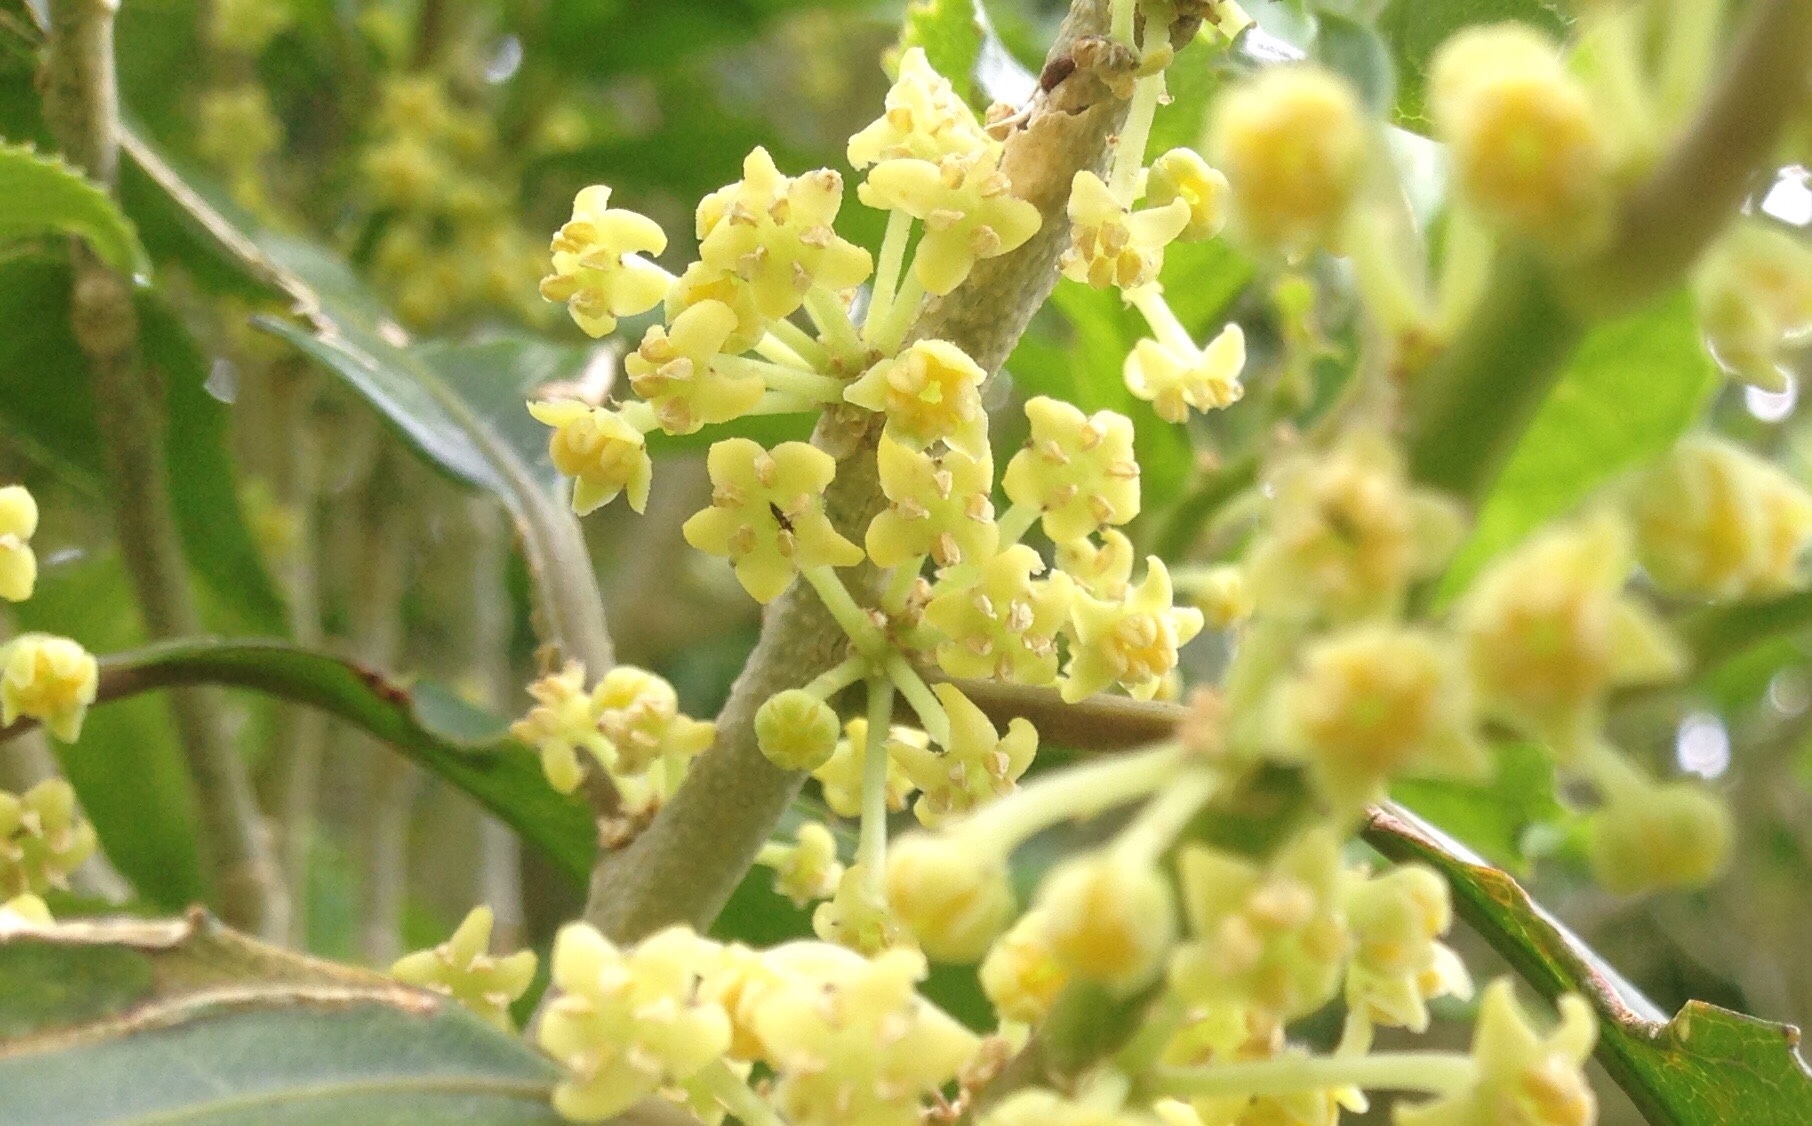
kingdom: Plantae
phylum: Tracheophyta
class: Magnoliopsida
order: Malpighiales
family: Violaceae
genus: Melicytus
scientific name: Melicytus ramiflorus
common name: Mahoe
